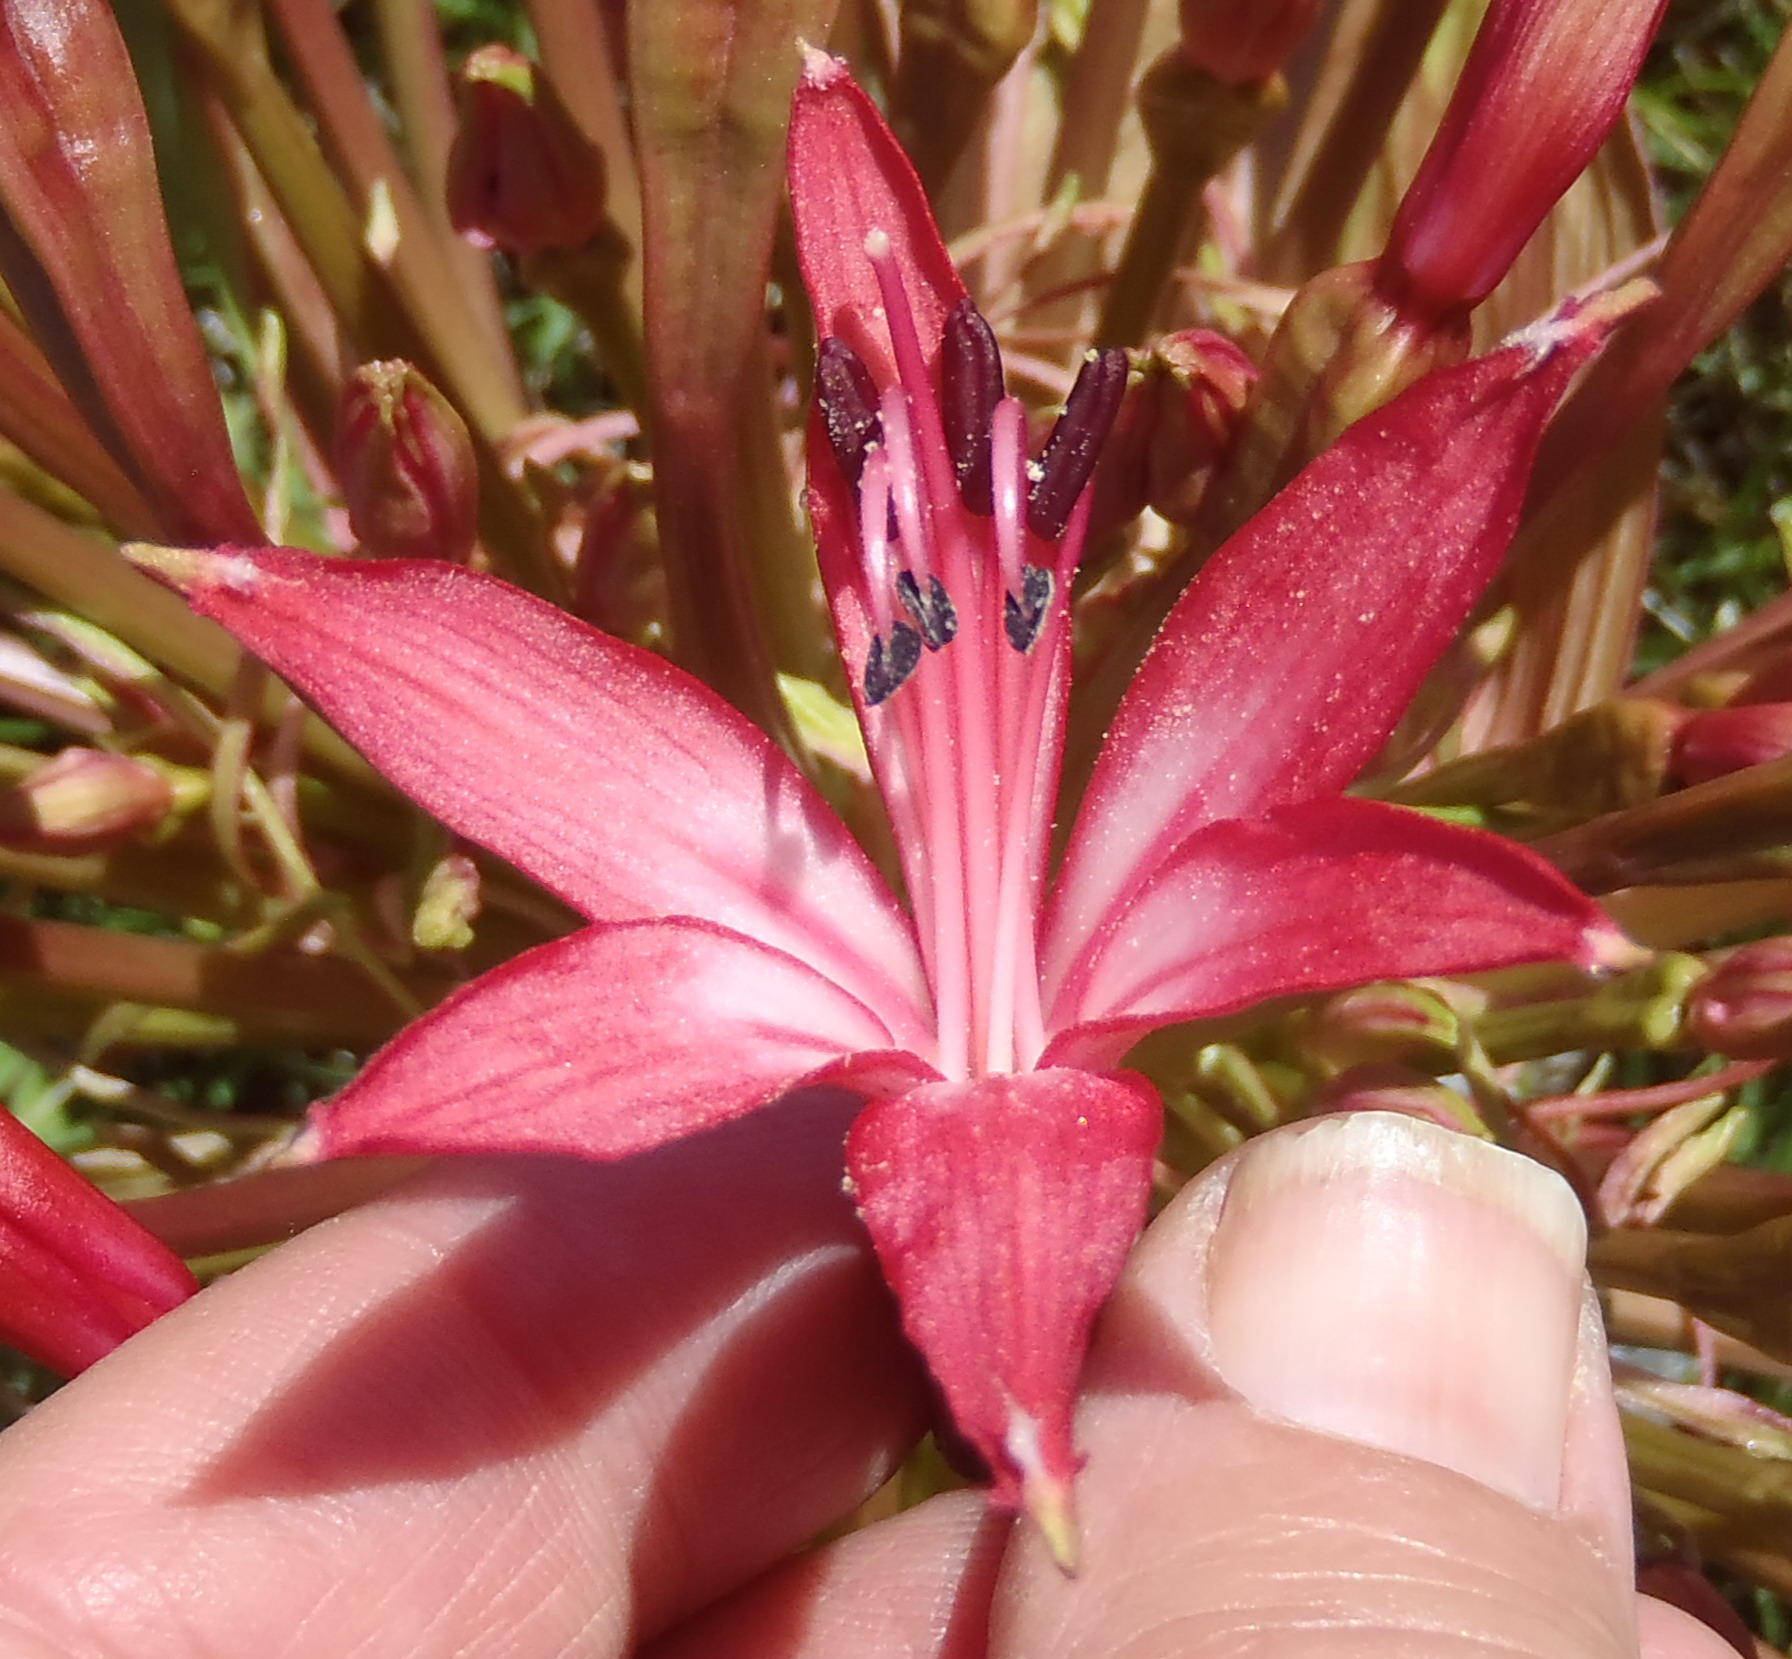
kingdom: Plantae
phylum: Tracheophyta
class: Liliopsida
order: Asparagales
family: Amaryllidaceae
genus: Brunsvigia
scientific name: Brunsvigia gregaria
